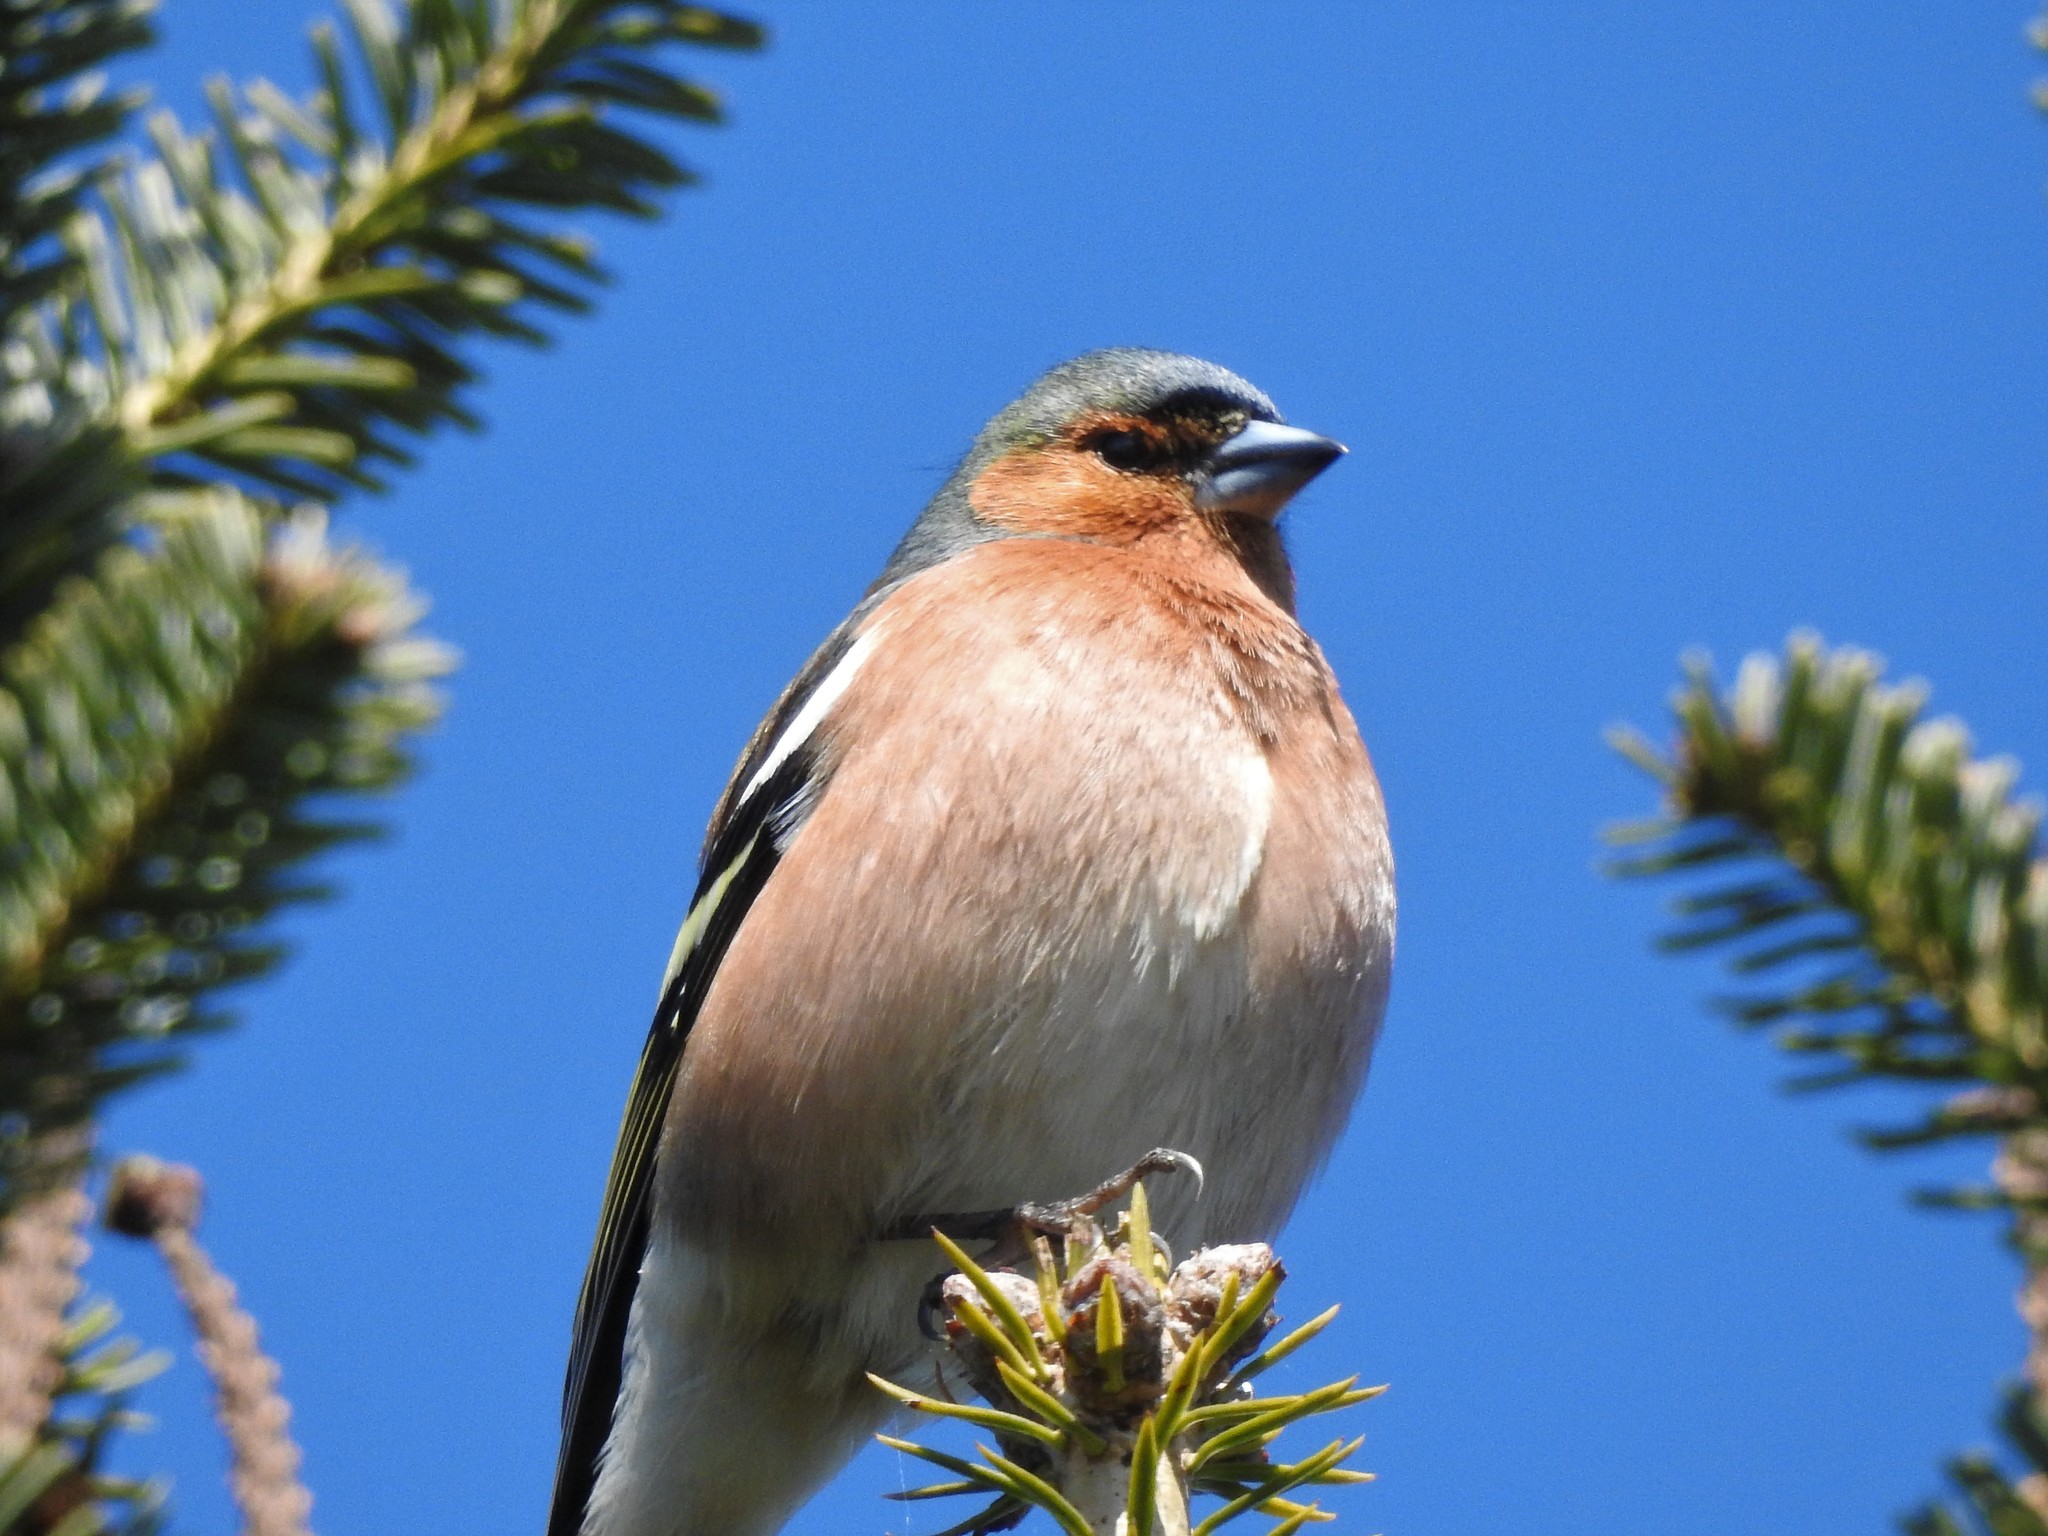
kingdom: Animalia
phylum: Chordata
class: Aves
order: Passeriformes
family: Fringillidae
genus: Fringilla
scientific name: Fringilla coelebs
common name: Common chaffinch
